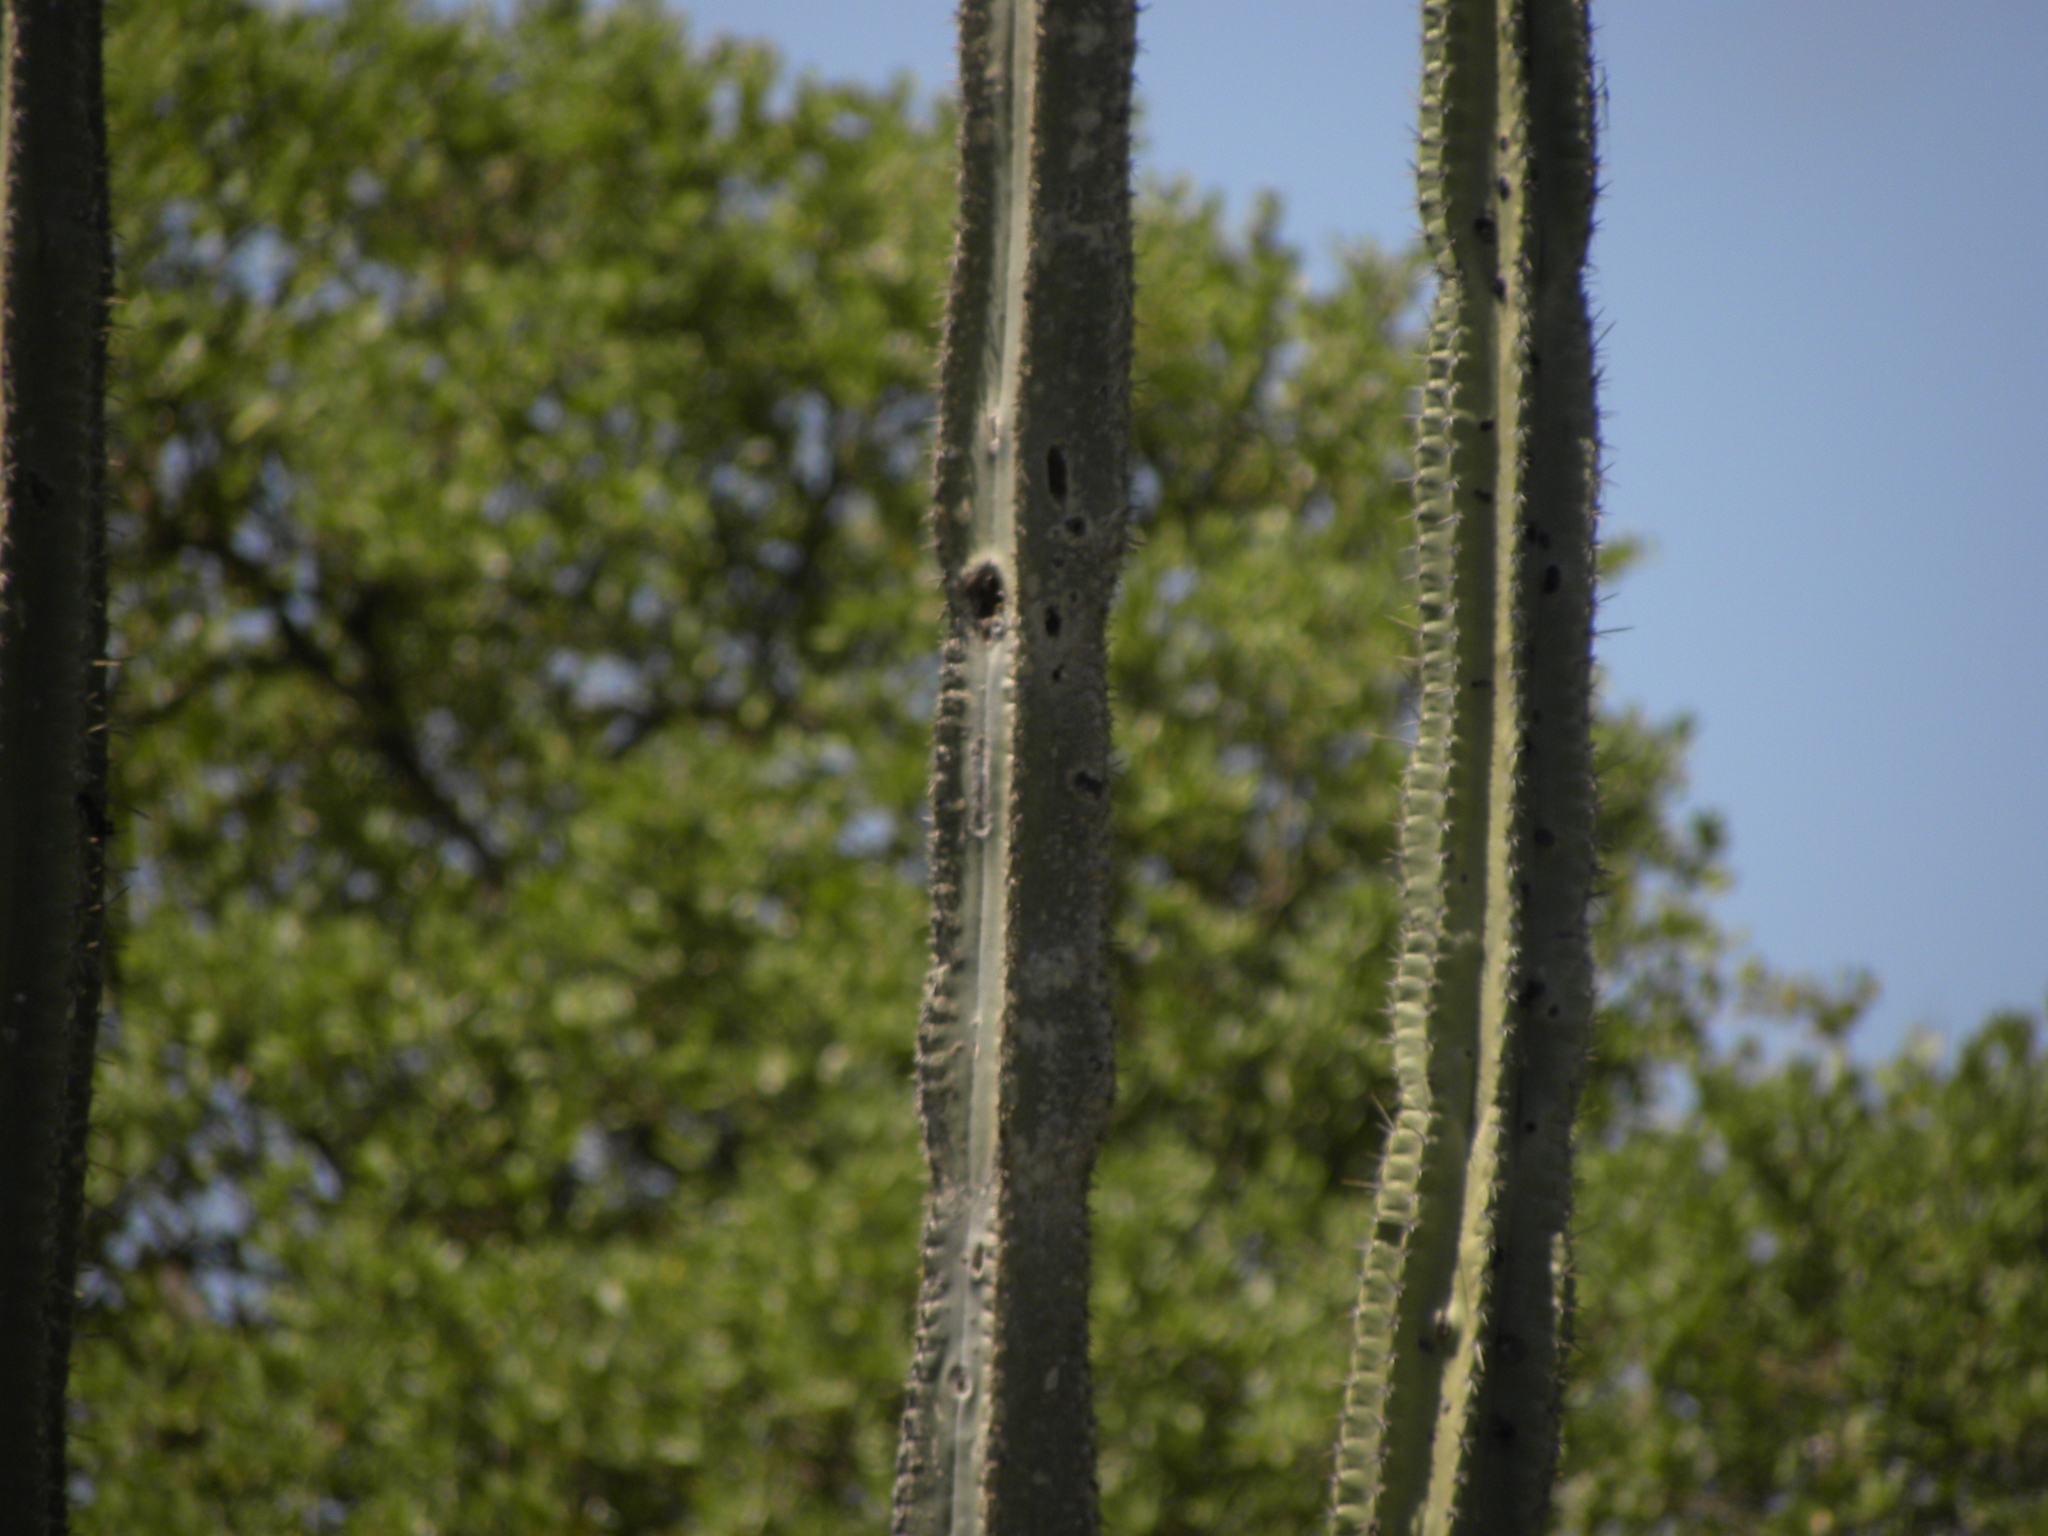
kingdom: Plantae
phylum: Tracheophyta
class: Magnoliopsida
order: Caryophyllales
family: Cactaceae
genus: Stenocereus
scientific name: Stenocereus griseus
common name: Tall candelabra cactus
